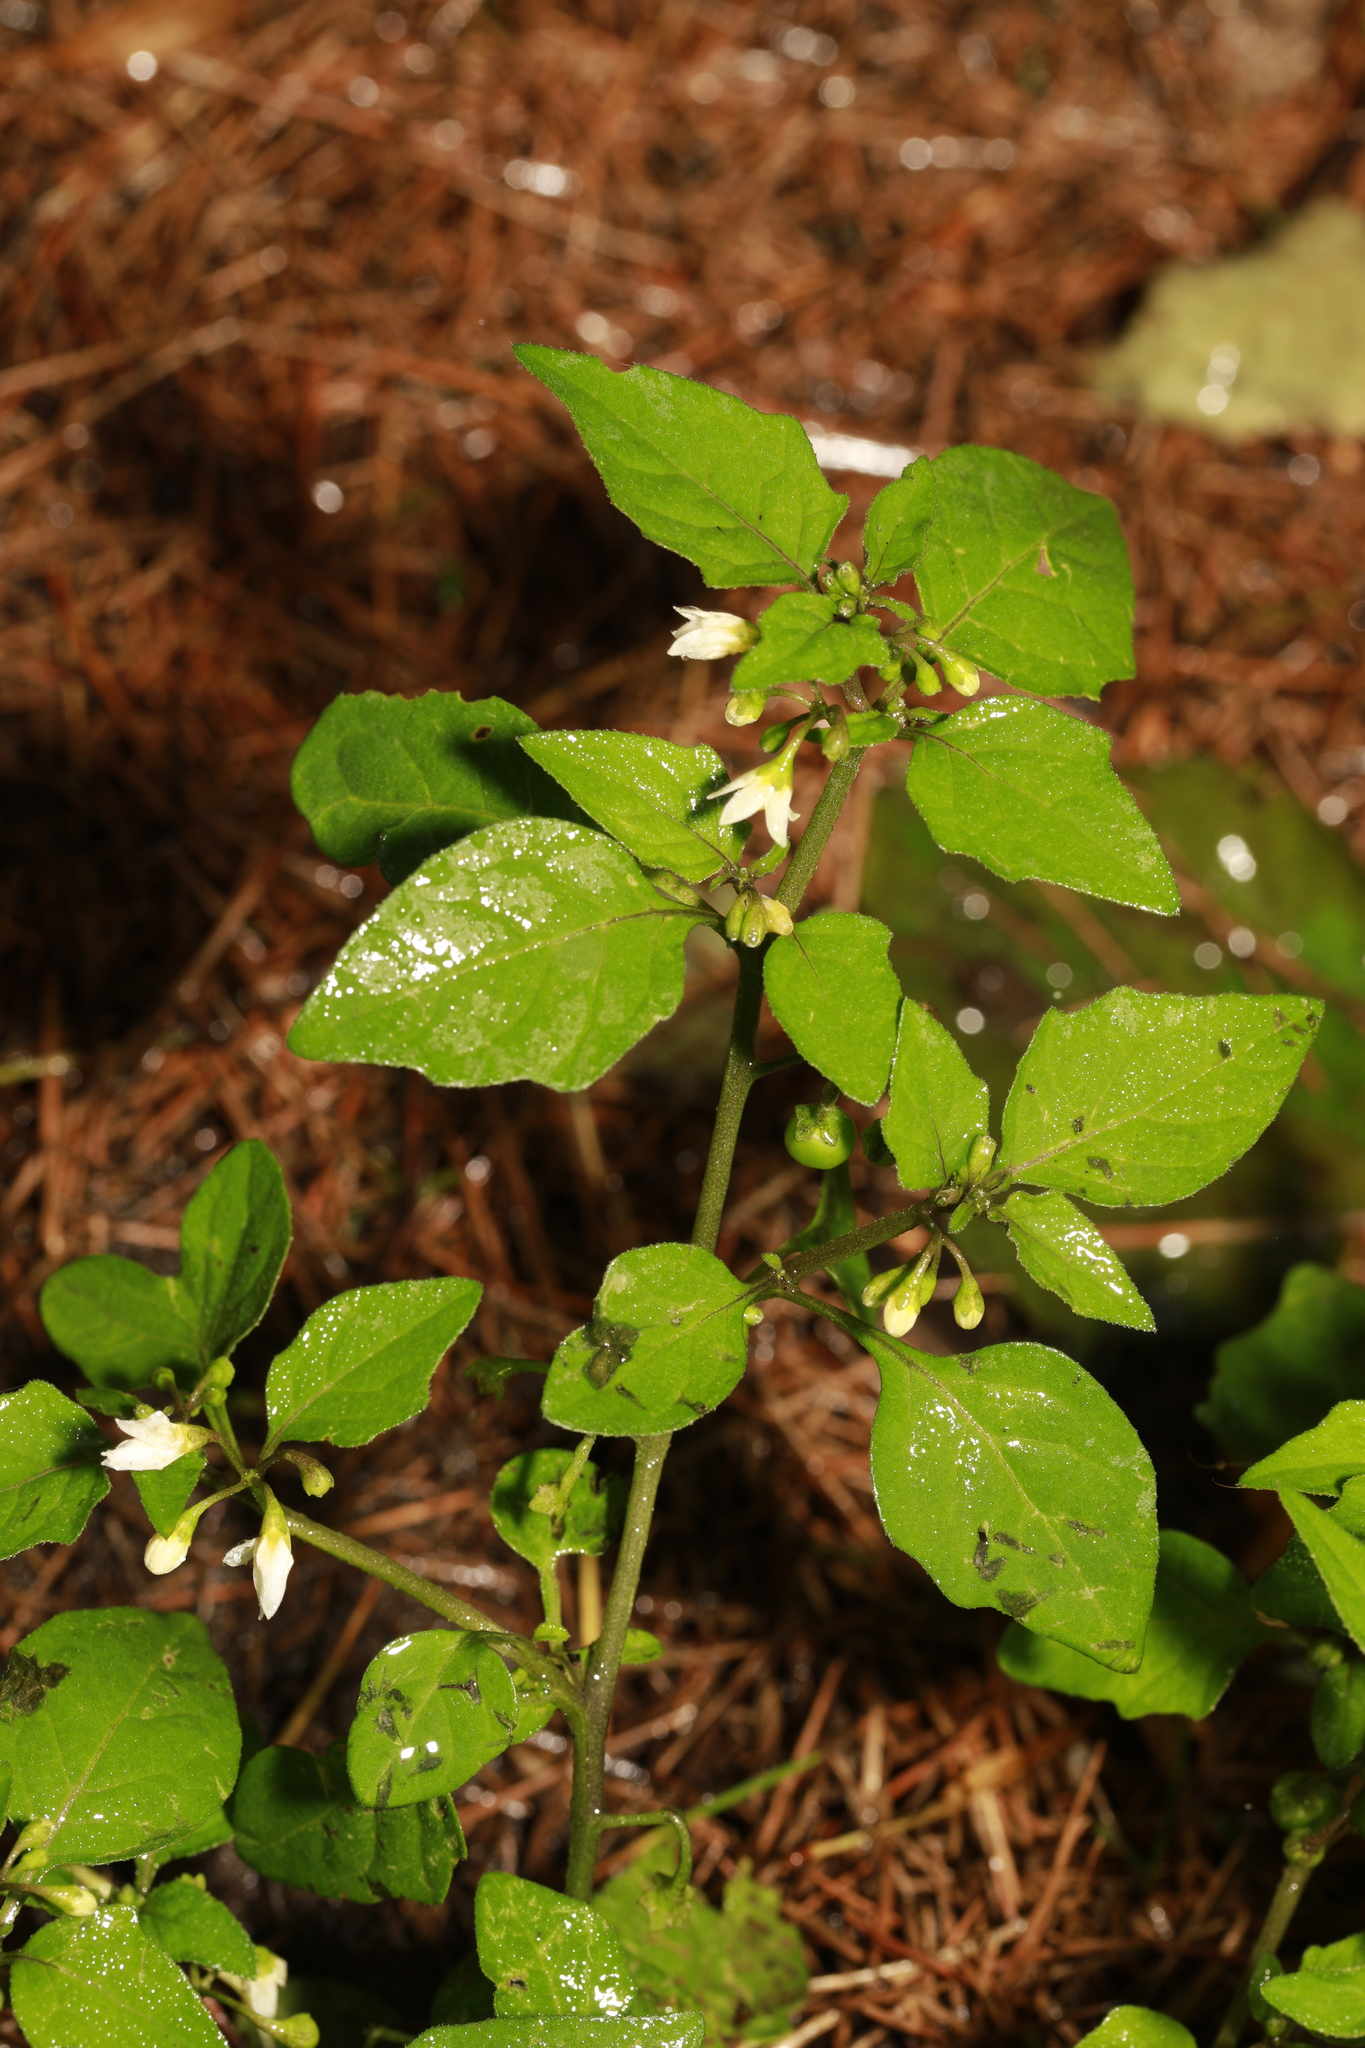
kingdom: Plantae
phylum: Tracheophyta
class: Magnoliopsida
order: Solanales
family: Solanaceae
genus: Solanum
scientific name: Solanum nigrum
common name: Black nightshade
